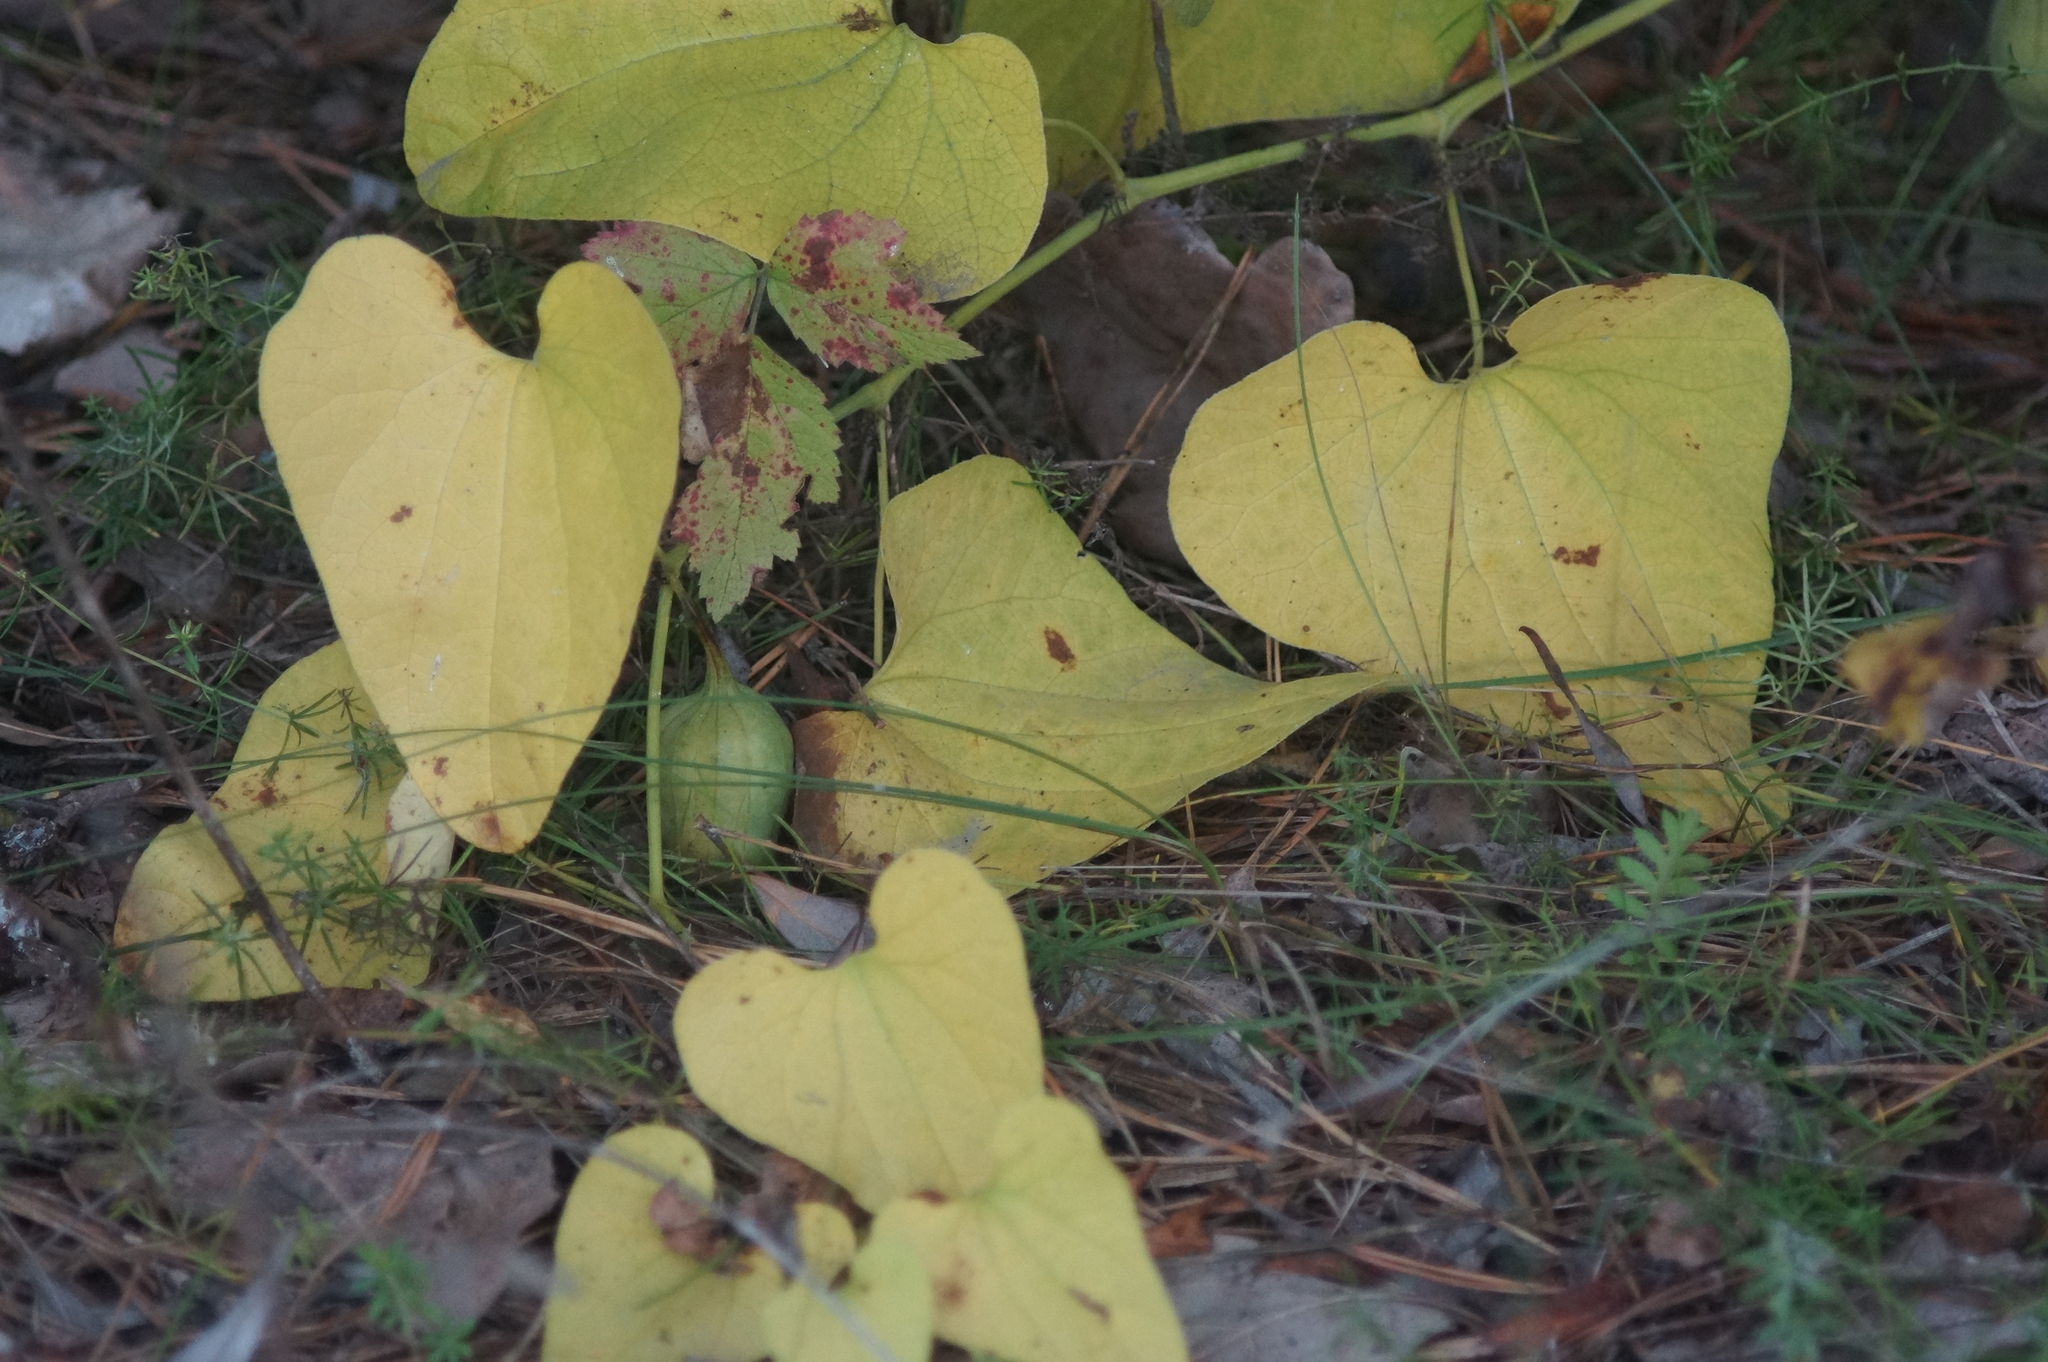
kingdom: Plantae
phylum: Tracheophyta
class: Magnoliopsida
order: Piperales
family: Aristolochiaceae
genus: Aristolochia
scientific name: Aristolochia clematitis
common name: Birthwort
